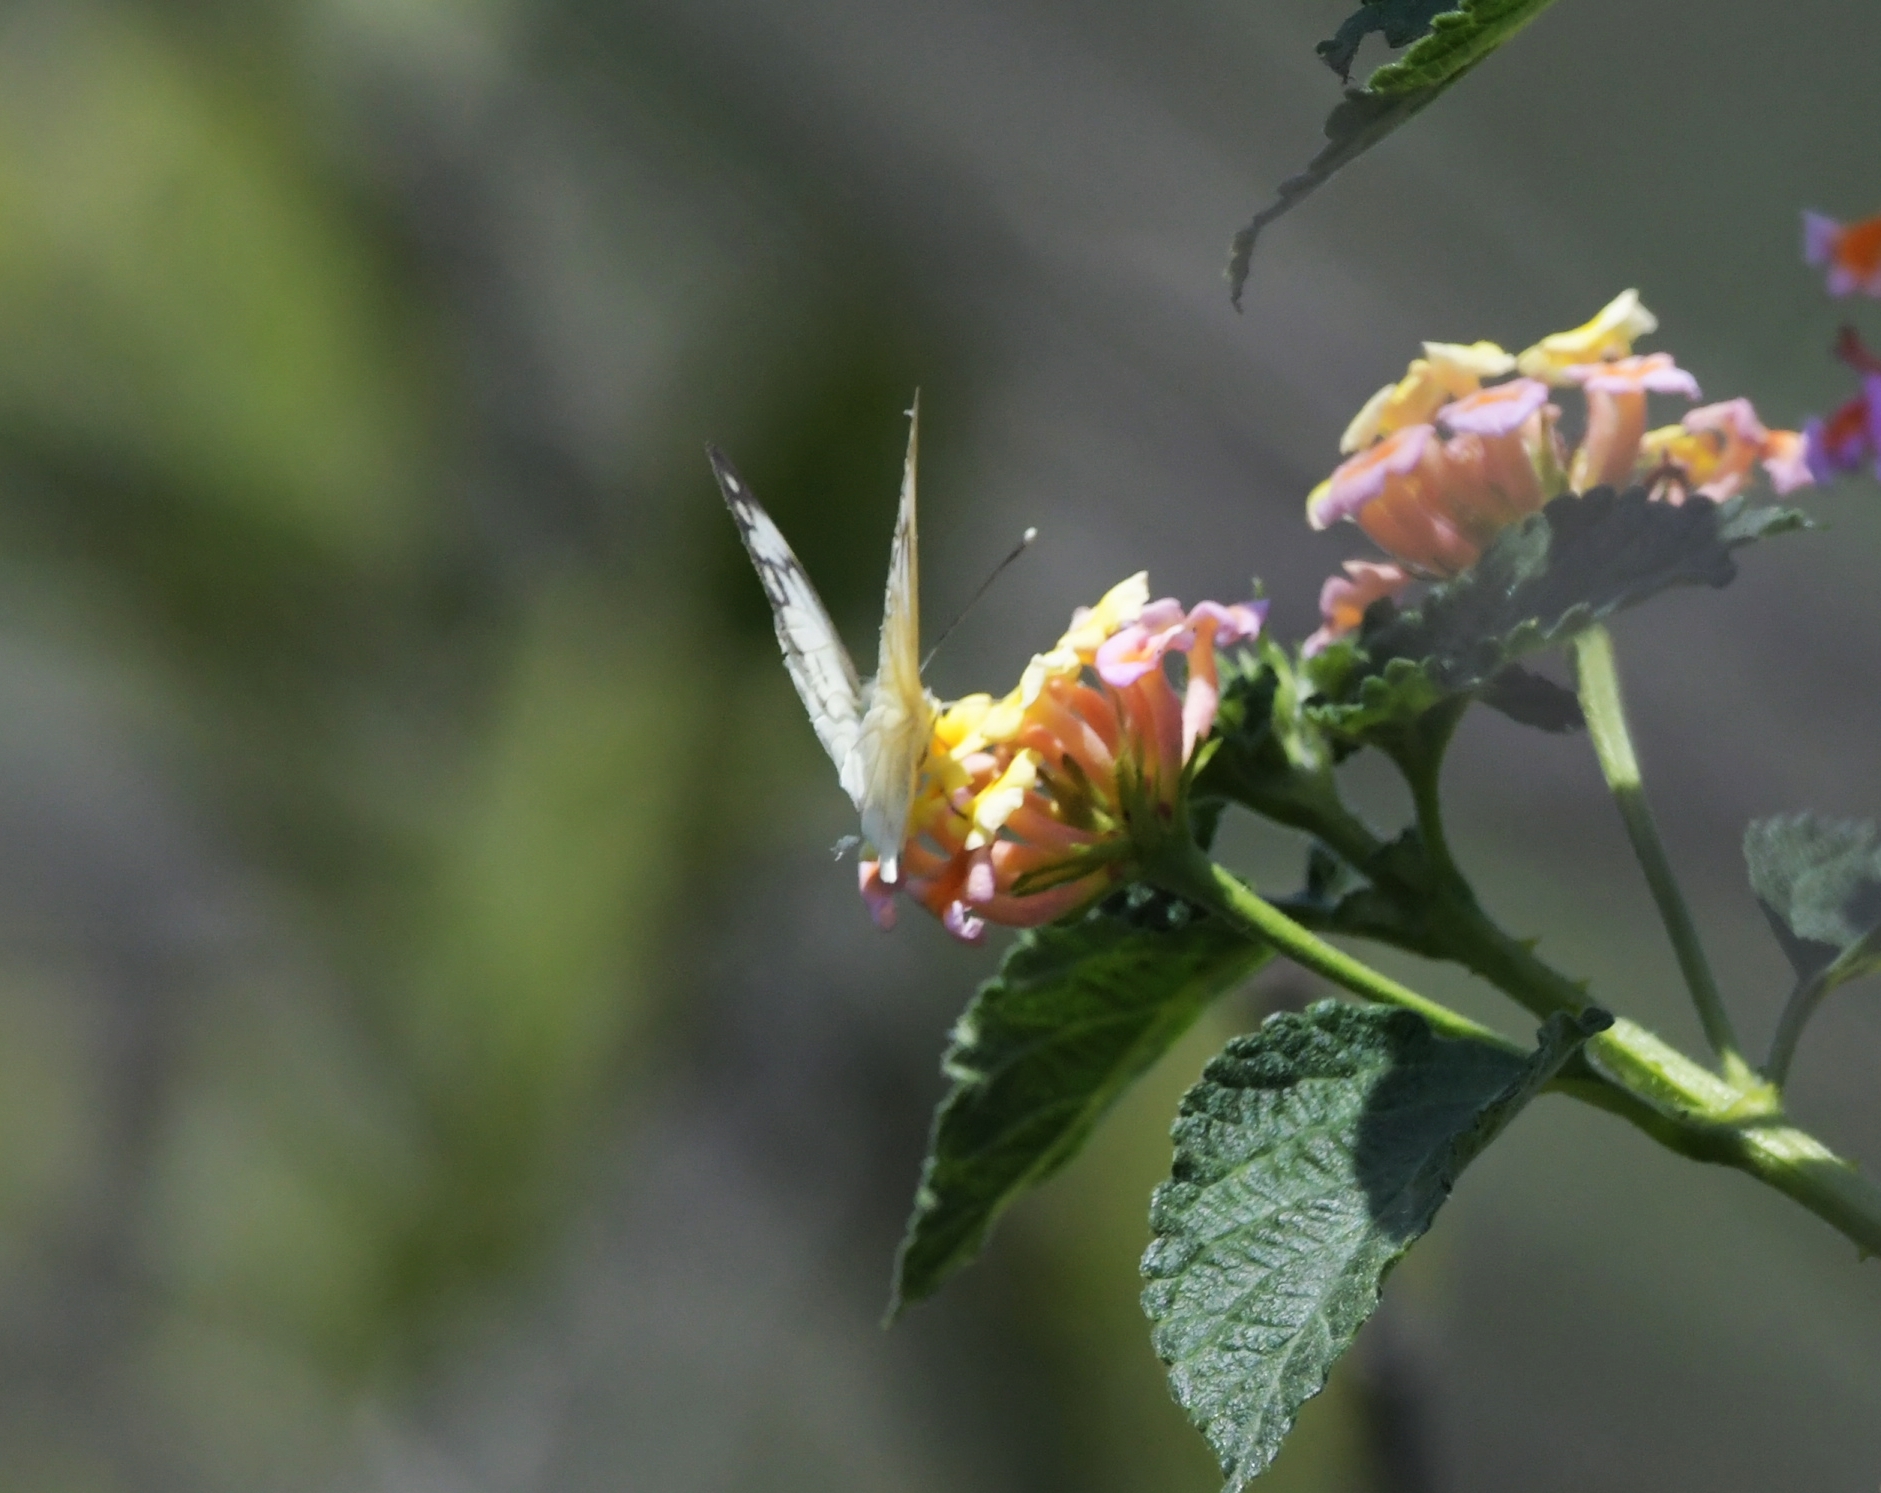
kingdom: Animalia
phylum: Arthropoda
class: Insecta
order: Lepidoptera
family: Pieridae
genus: Belenois
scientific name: Belenois aurota
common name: Brown-veined white
